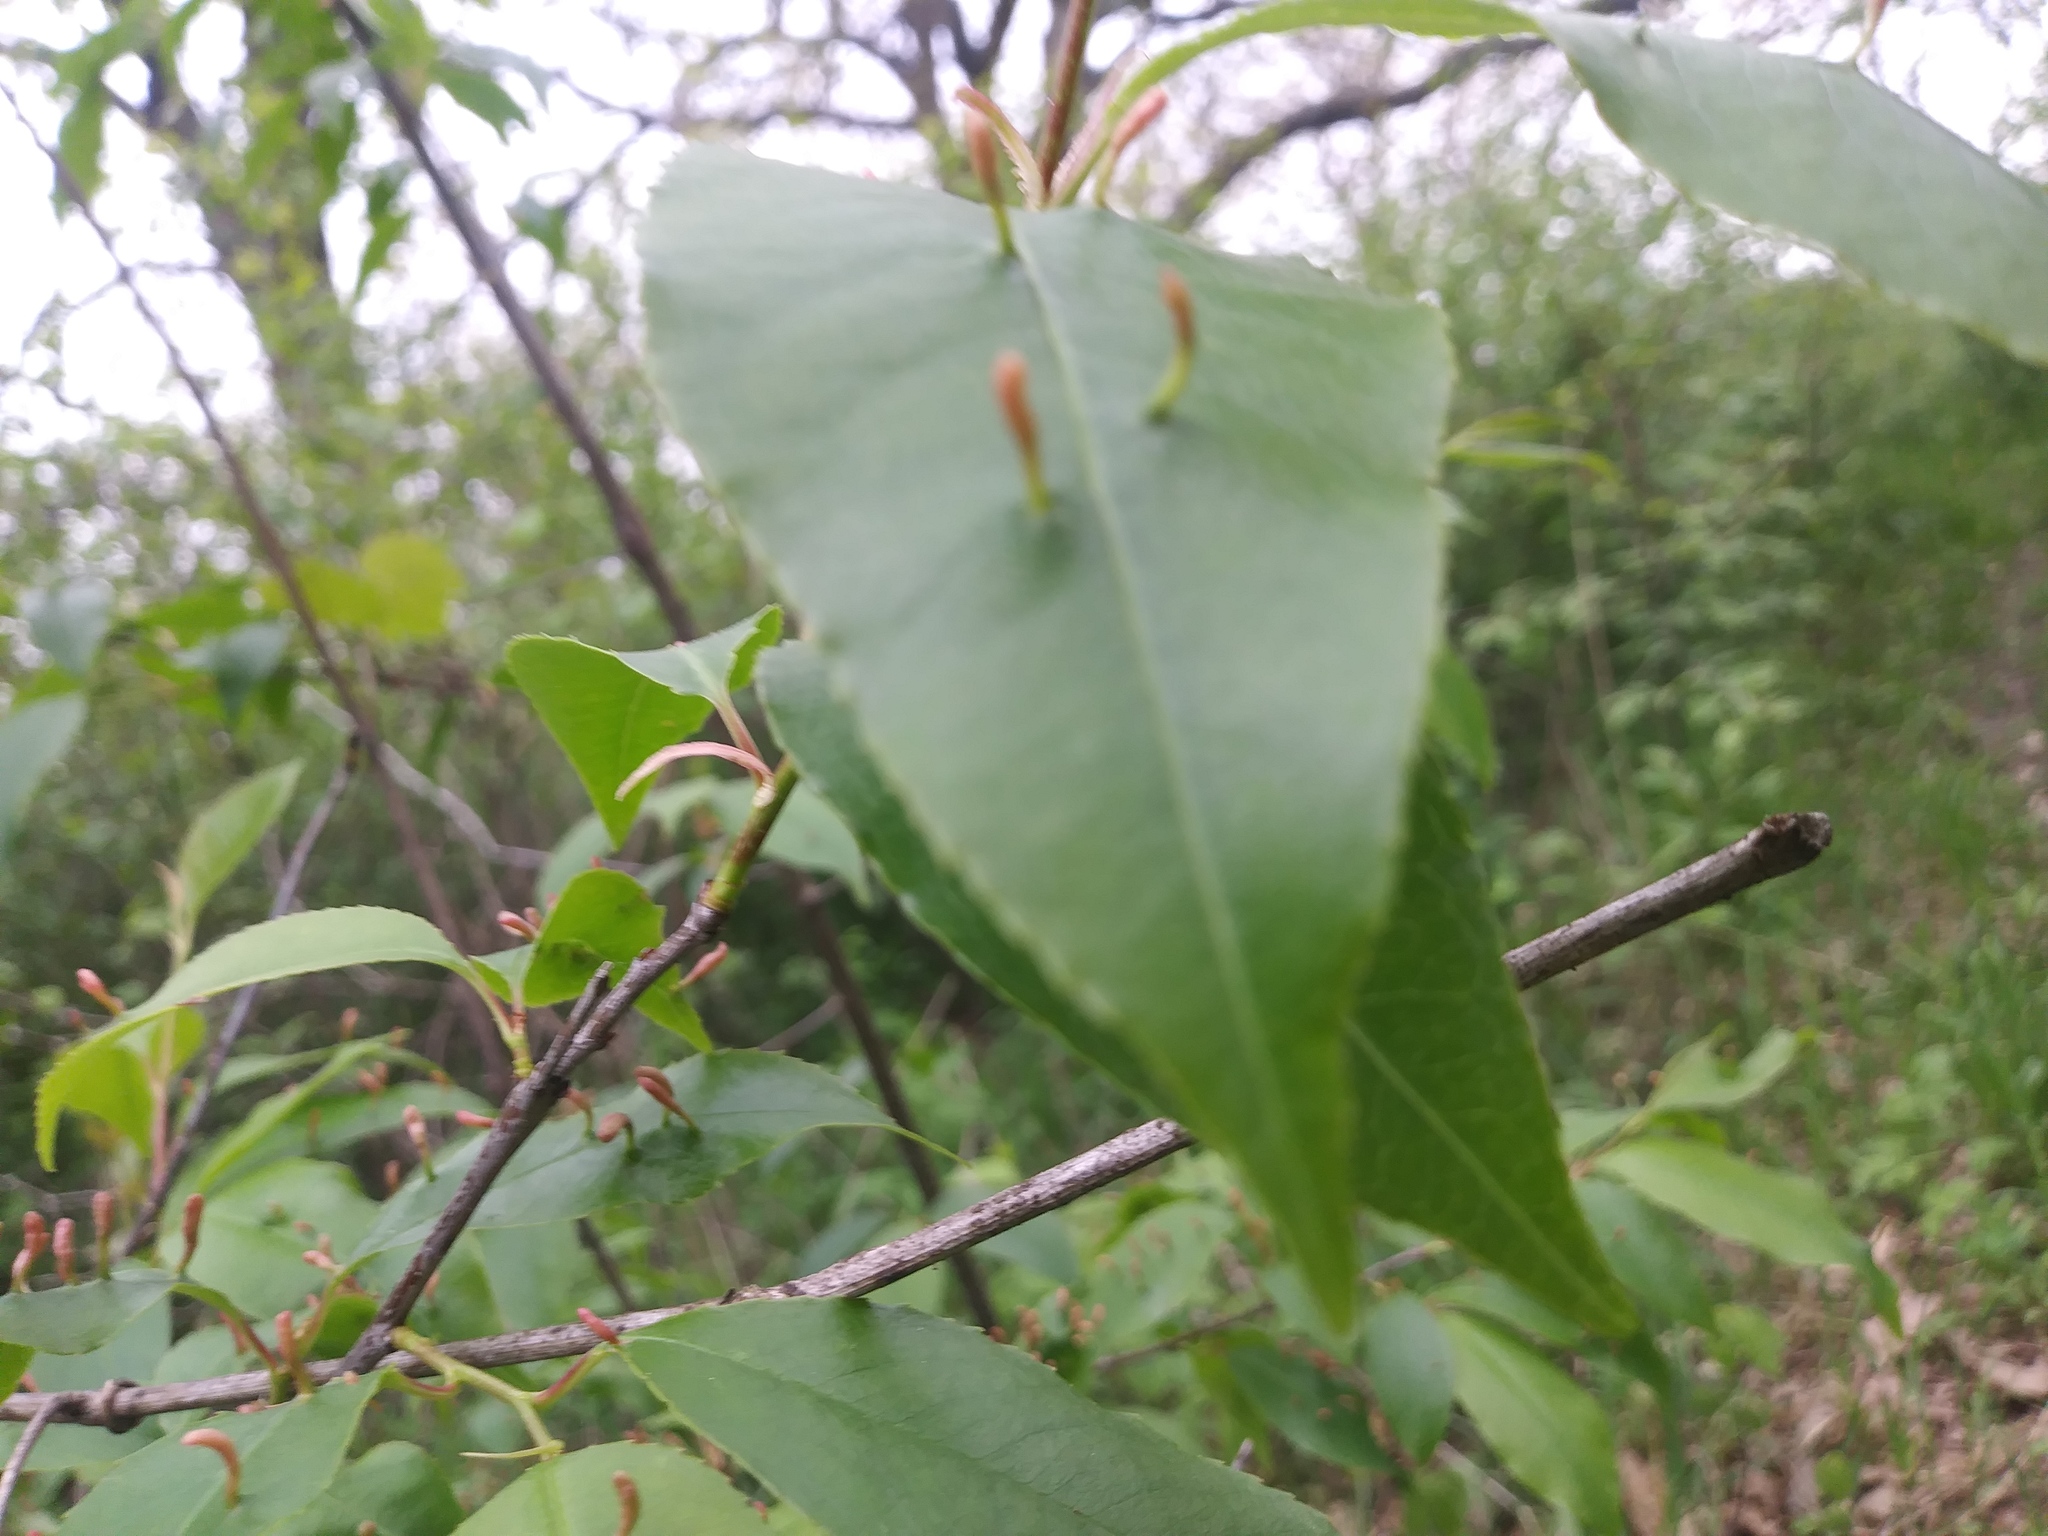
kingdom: Animalia
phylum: Arthropoda
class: Arachnida
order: Trombidiformes
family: Eriophyidae
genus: Eriophyes
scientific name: Eriophyes
